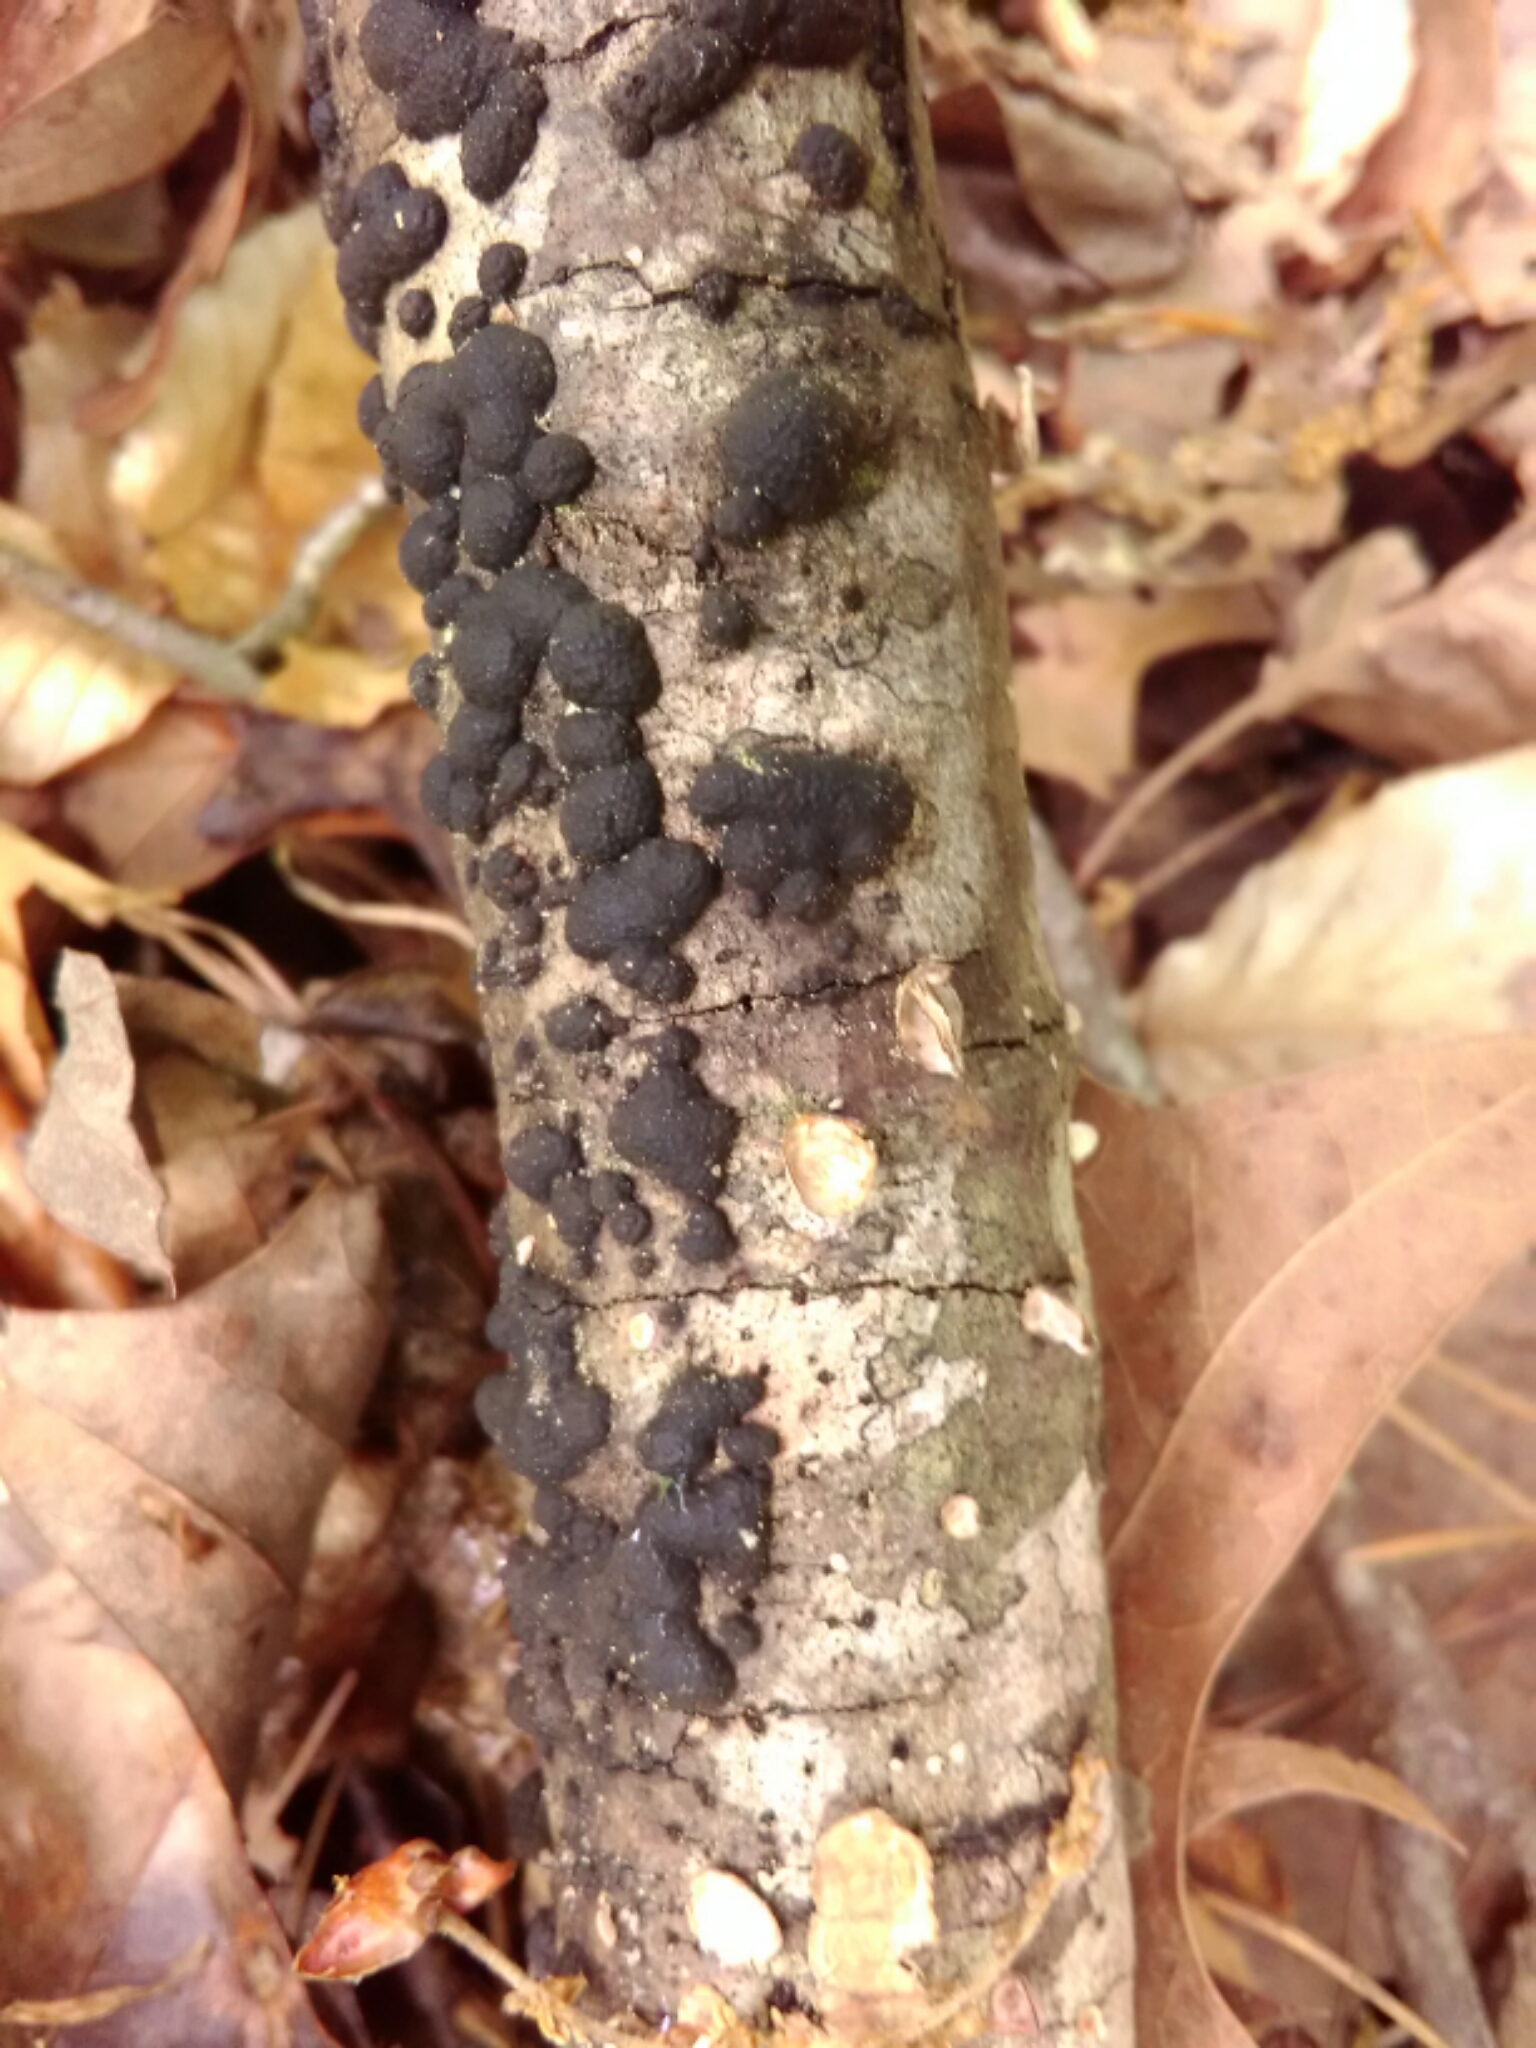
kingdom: Fungi
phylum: Ascomycota
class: Sordariomycetes
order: Xylariales
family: Hypoxylaceae
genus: Annulohypoxylon
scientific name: Annulohypoxylon thouarsianum
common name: Cramp balls
